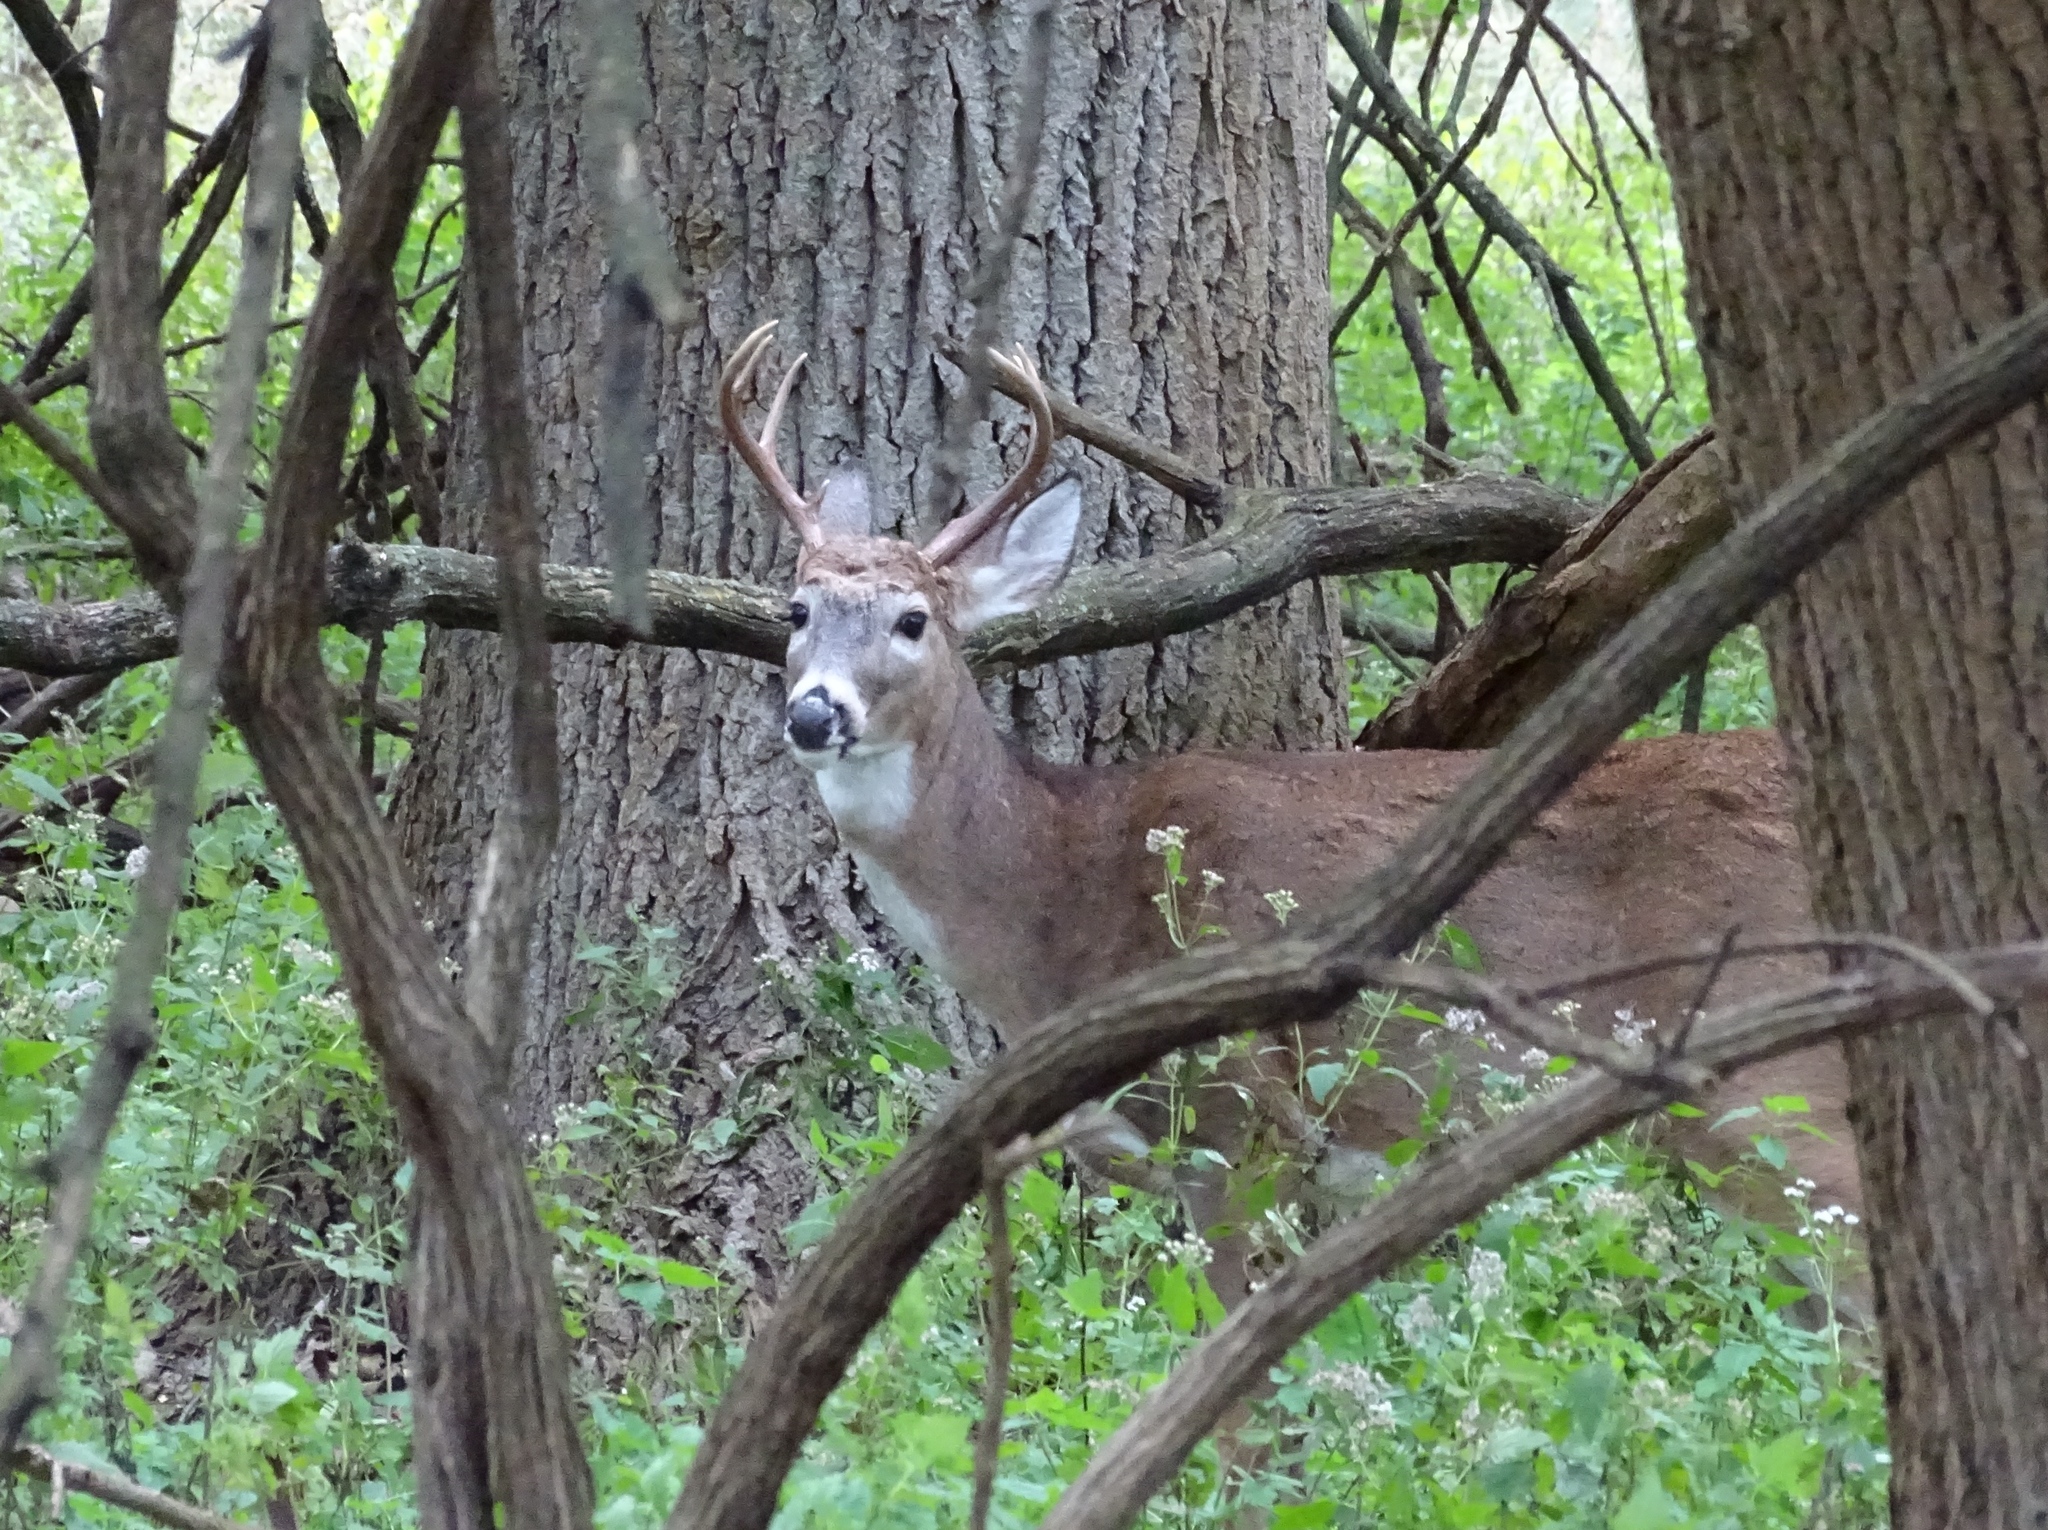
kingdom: Animalia
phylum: Chordata
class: Mammalia
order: Artiodactyla
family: Cervidae
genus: Odocoileus
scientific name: Odocoileus virginianus
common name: White-tailed deer
